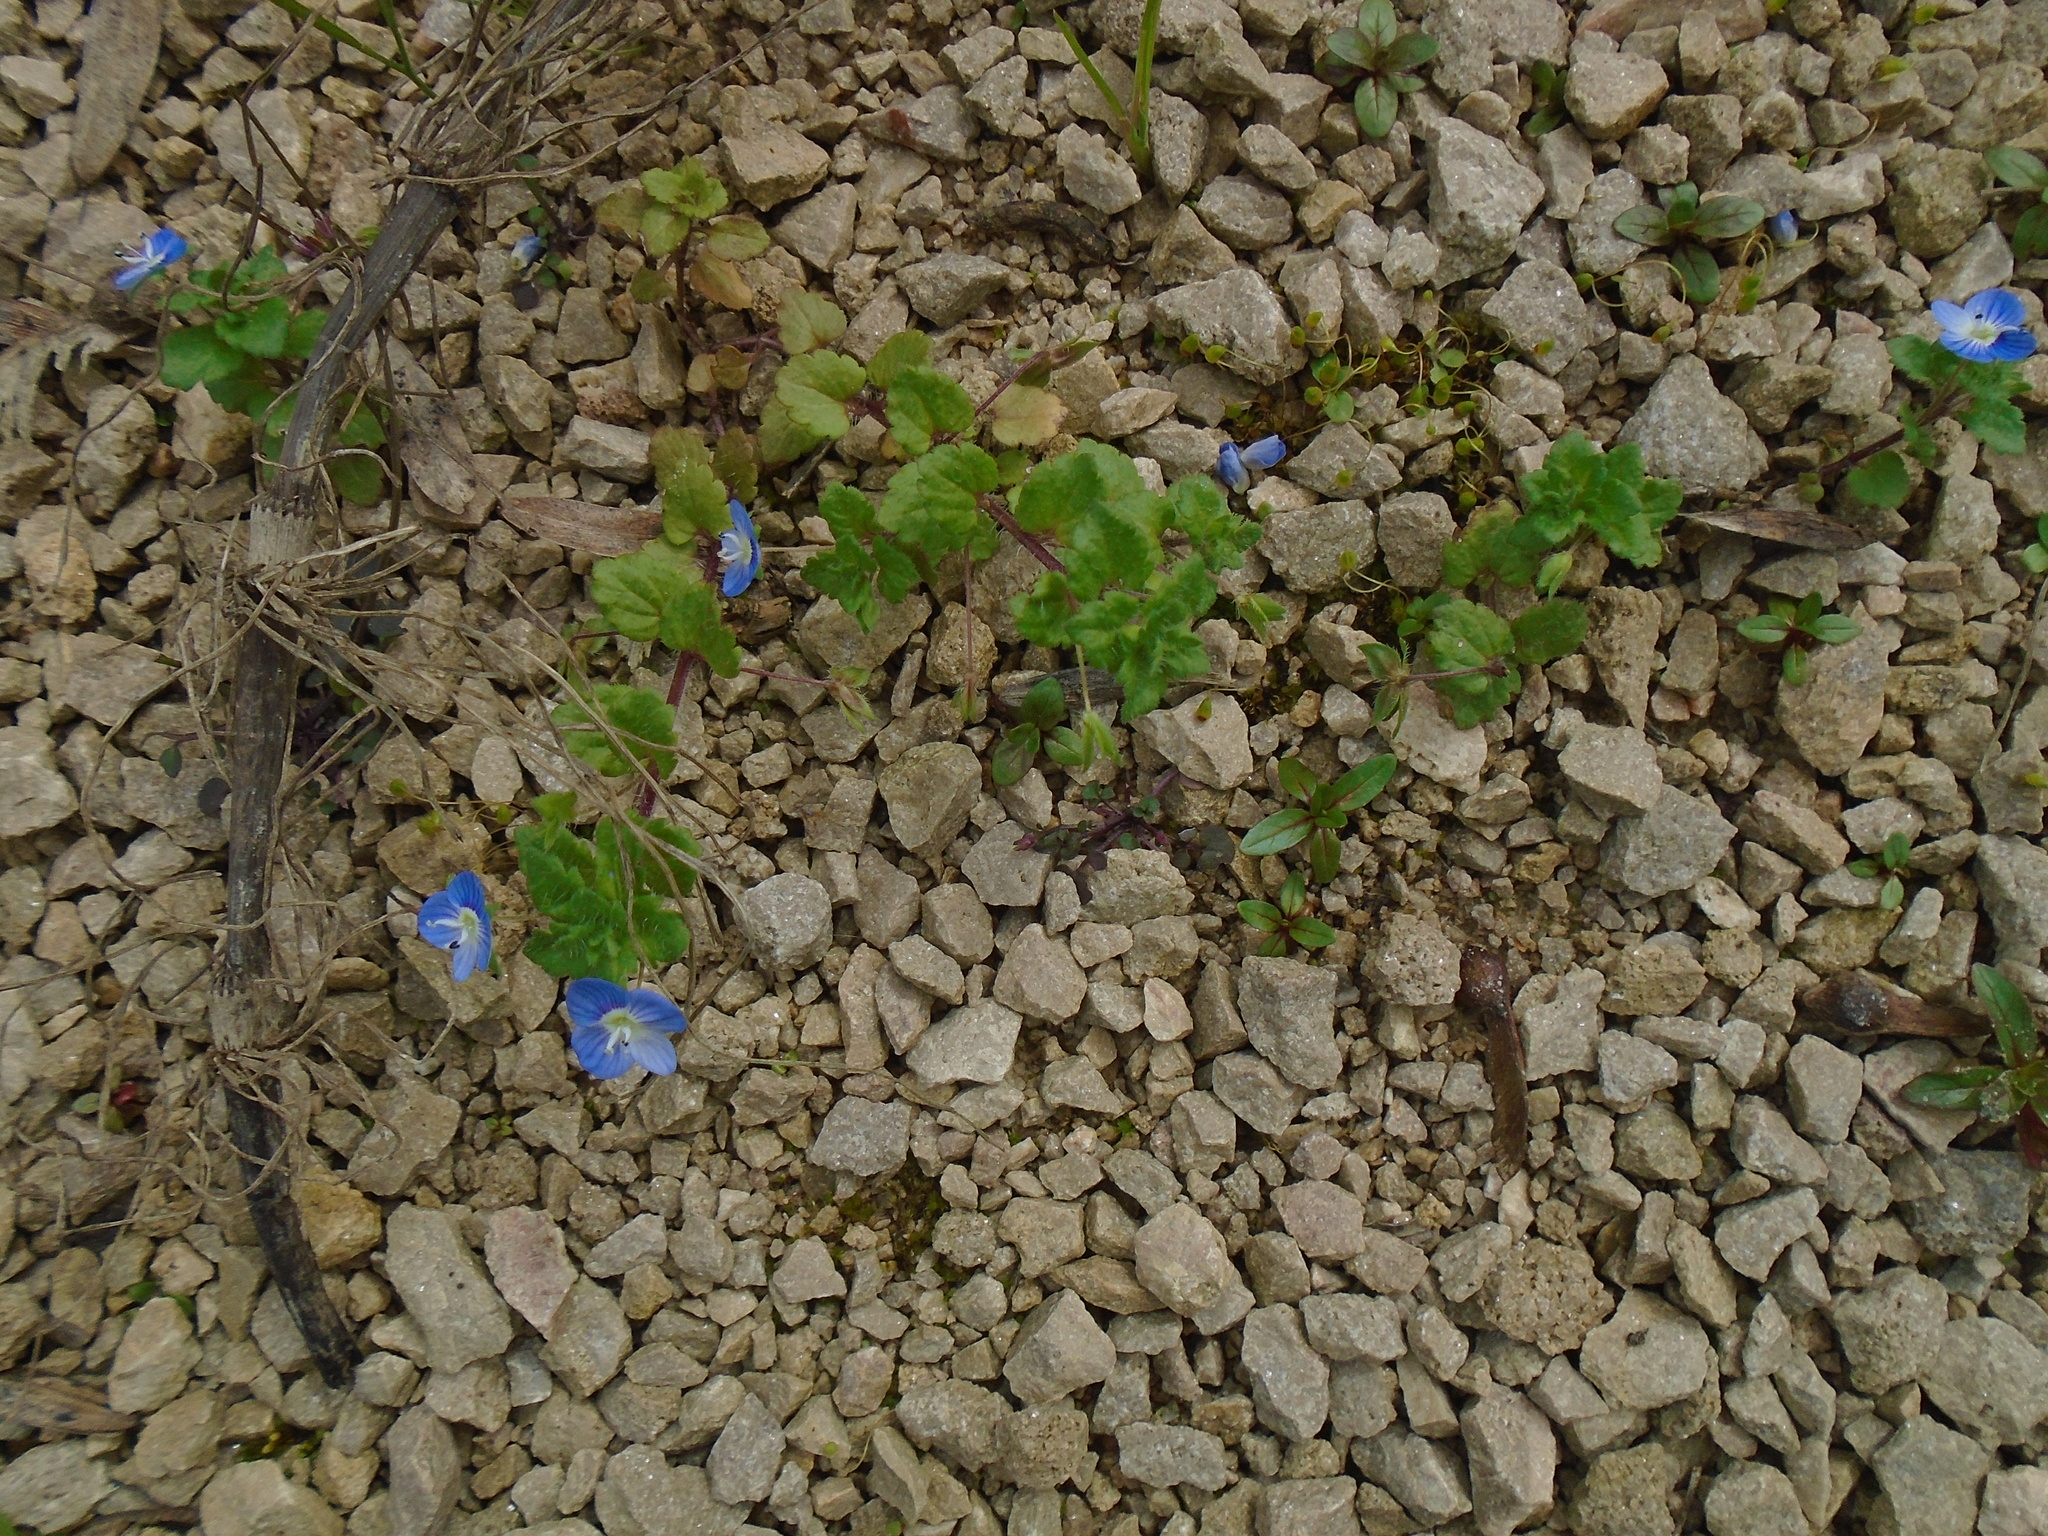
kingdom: Plantae
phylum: Tracheophyta
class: Magnoliopsida
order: Lamiales
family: Plantaginaceae
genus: Veronica
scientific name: Veronica persica
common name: Common field-speedwell
